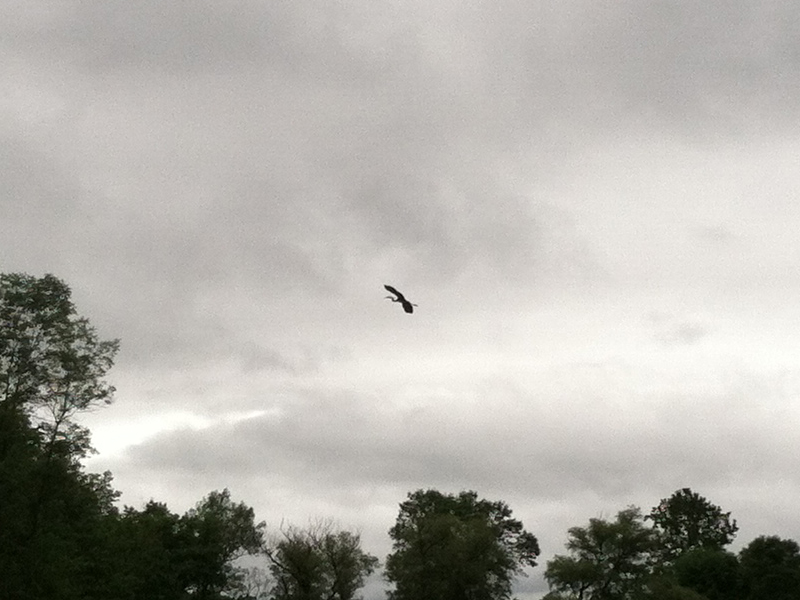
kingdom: Animalia
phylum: Chordata
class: Aves
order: Pelecaniformes
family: Ardeidae
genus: Ardea
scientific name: Ardea herodias
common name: Great blue heron
